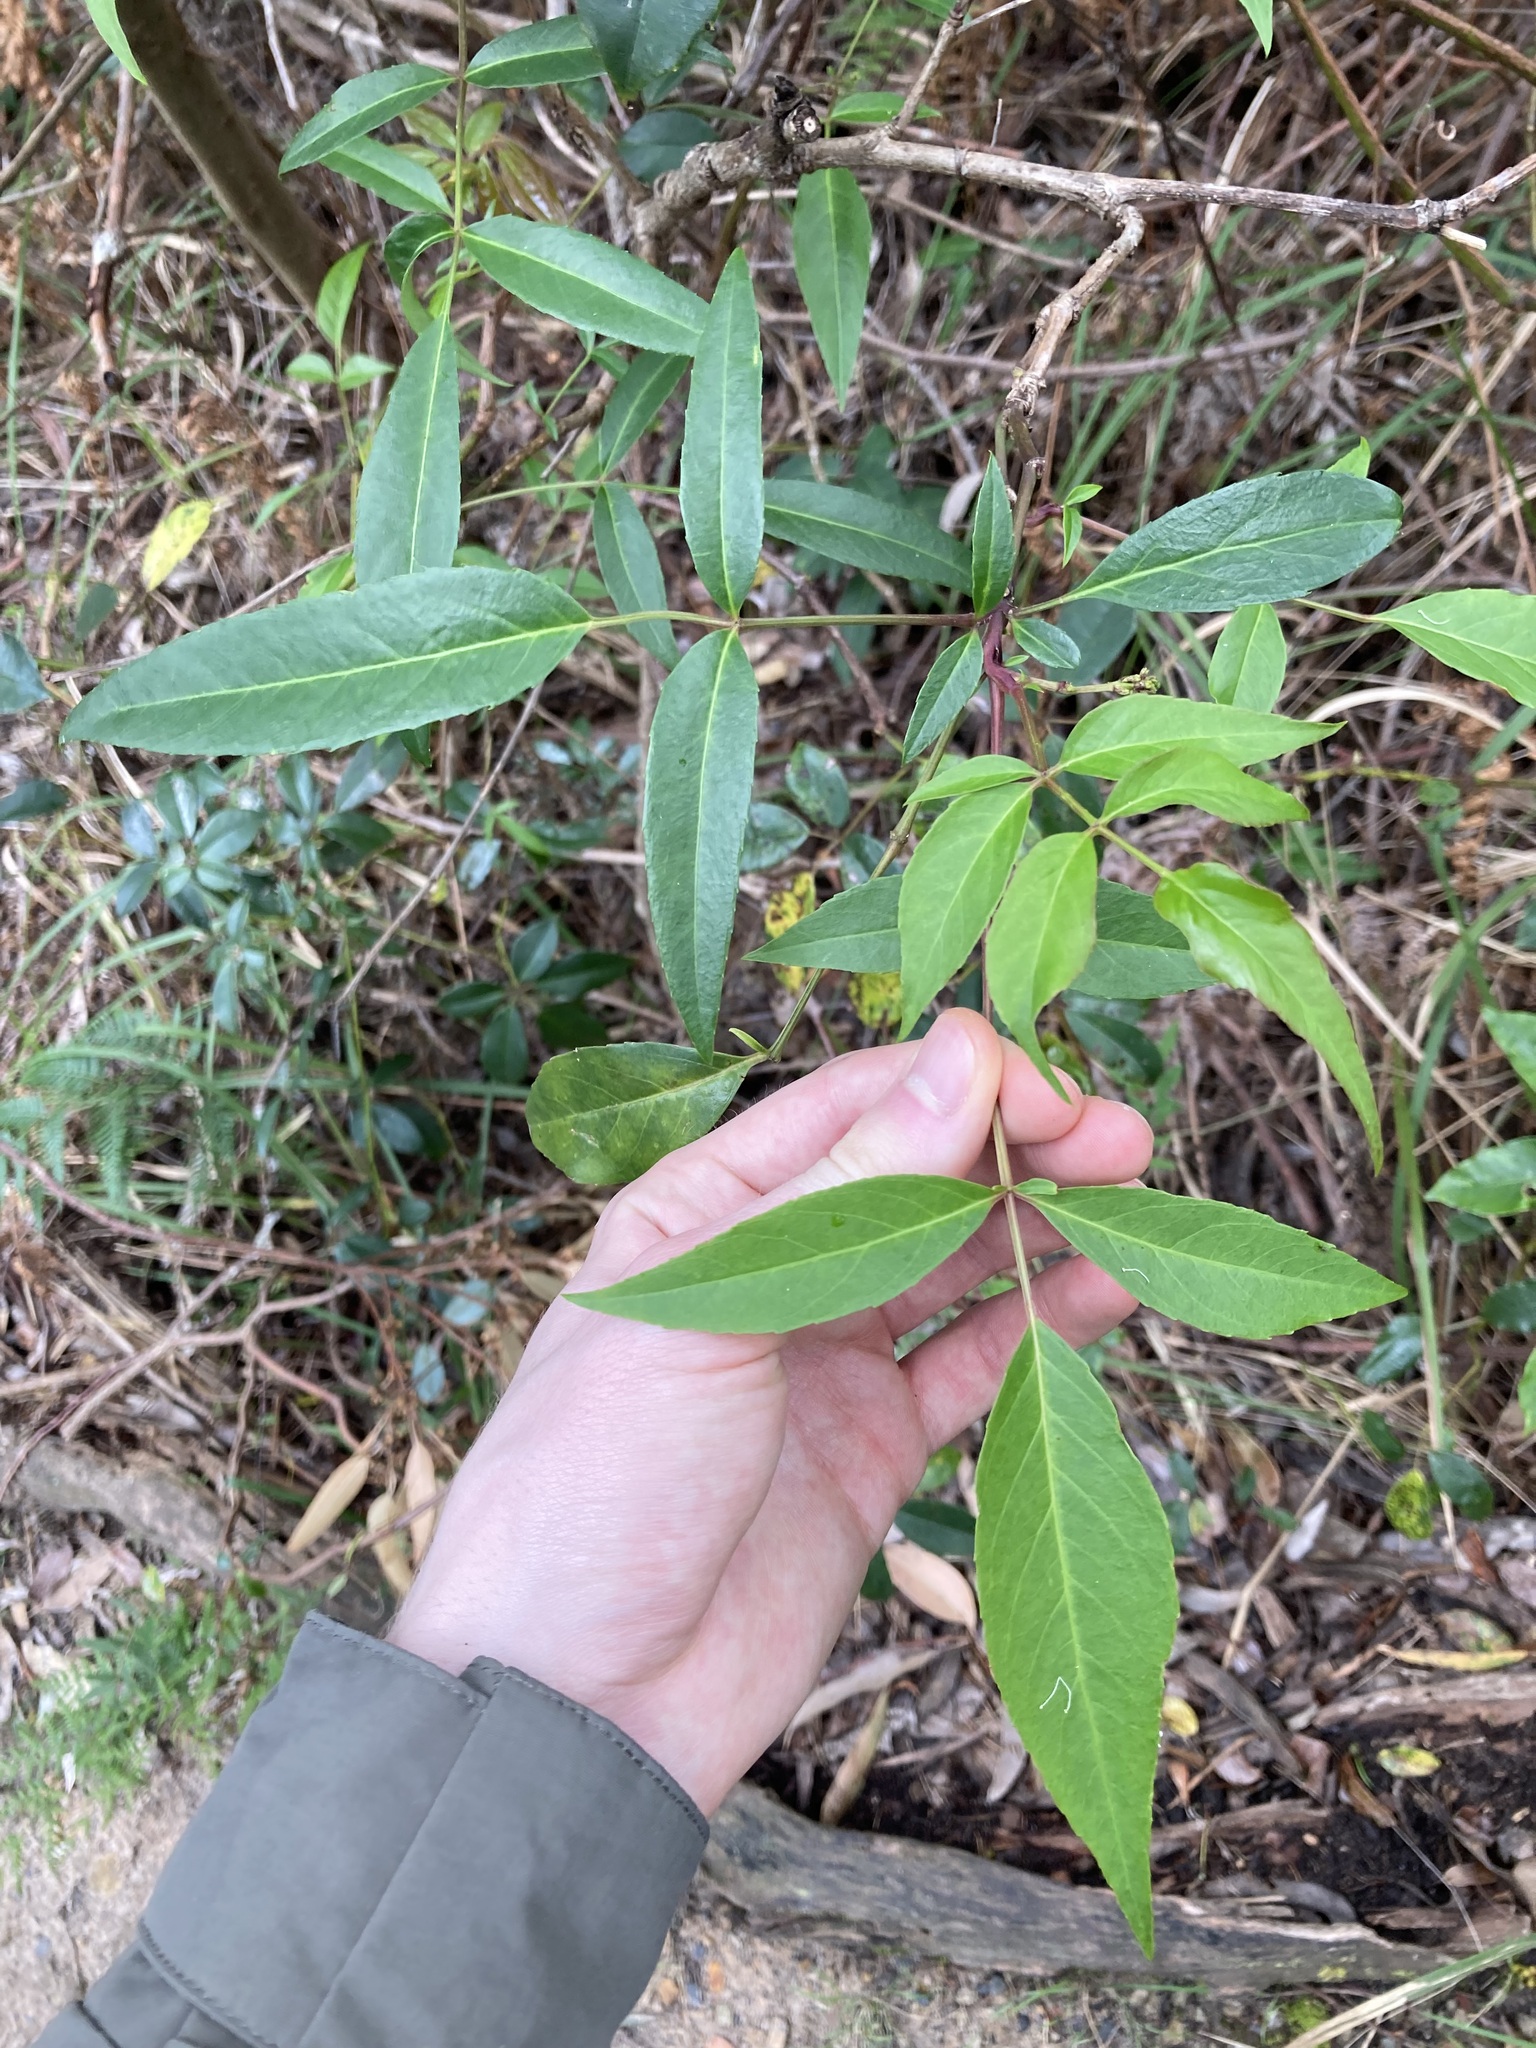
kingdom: Plantae
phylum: Tracheophyta
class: Magnoliopsida
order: Apiales
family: Araliaceae
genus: Polyscias
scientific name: Polyscias sambucifolia
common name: Elderberry-ash
